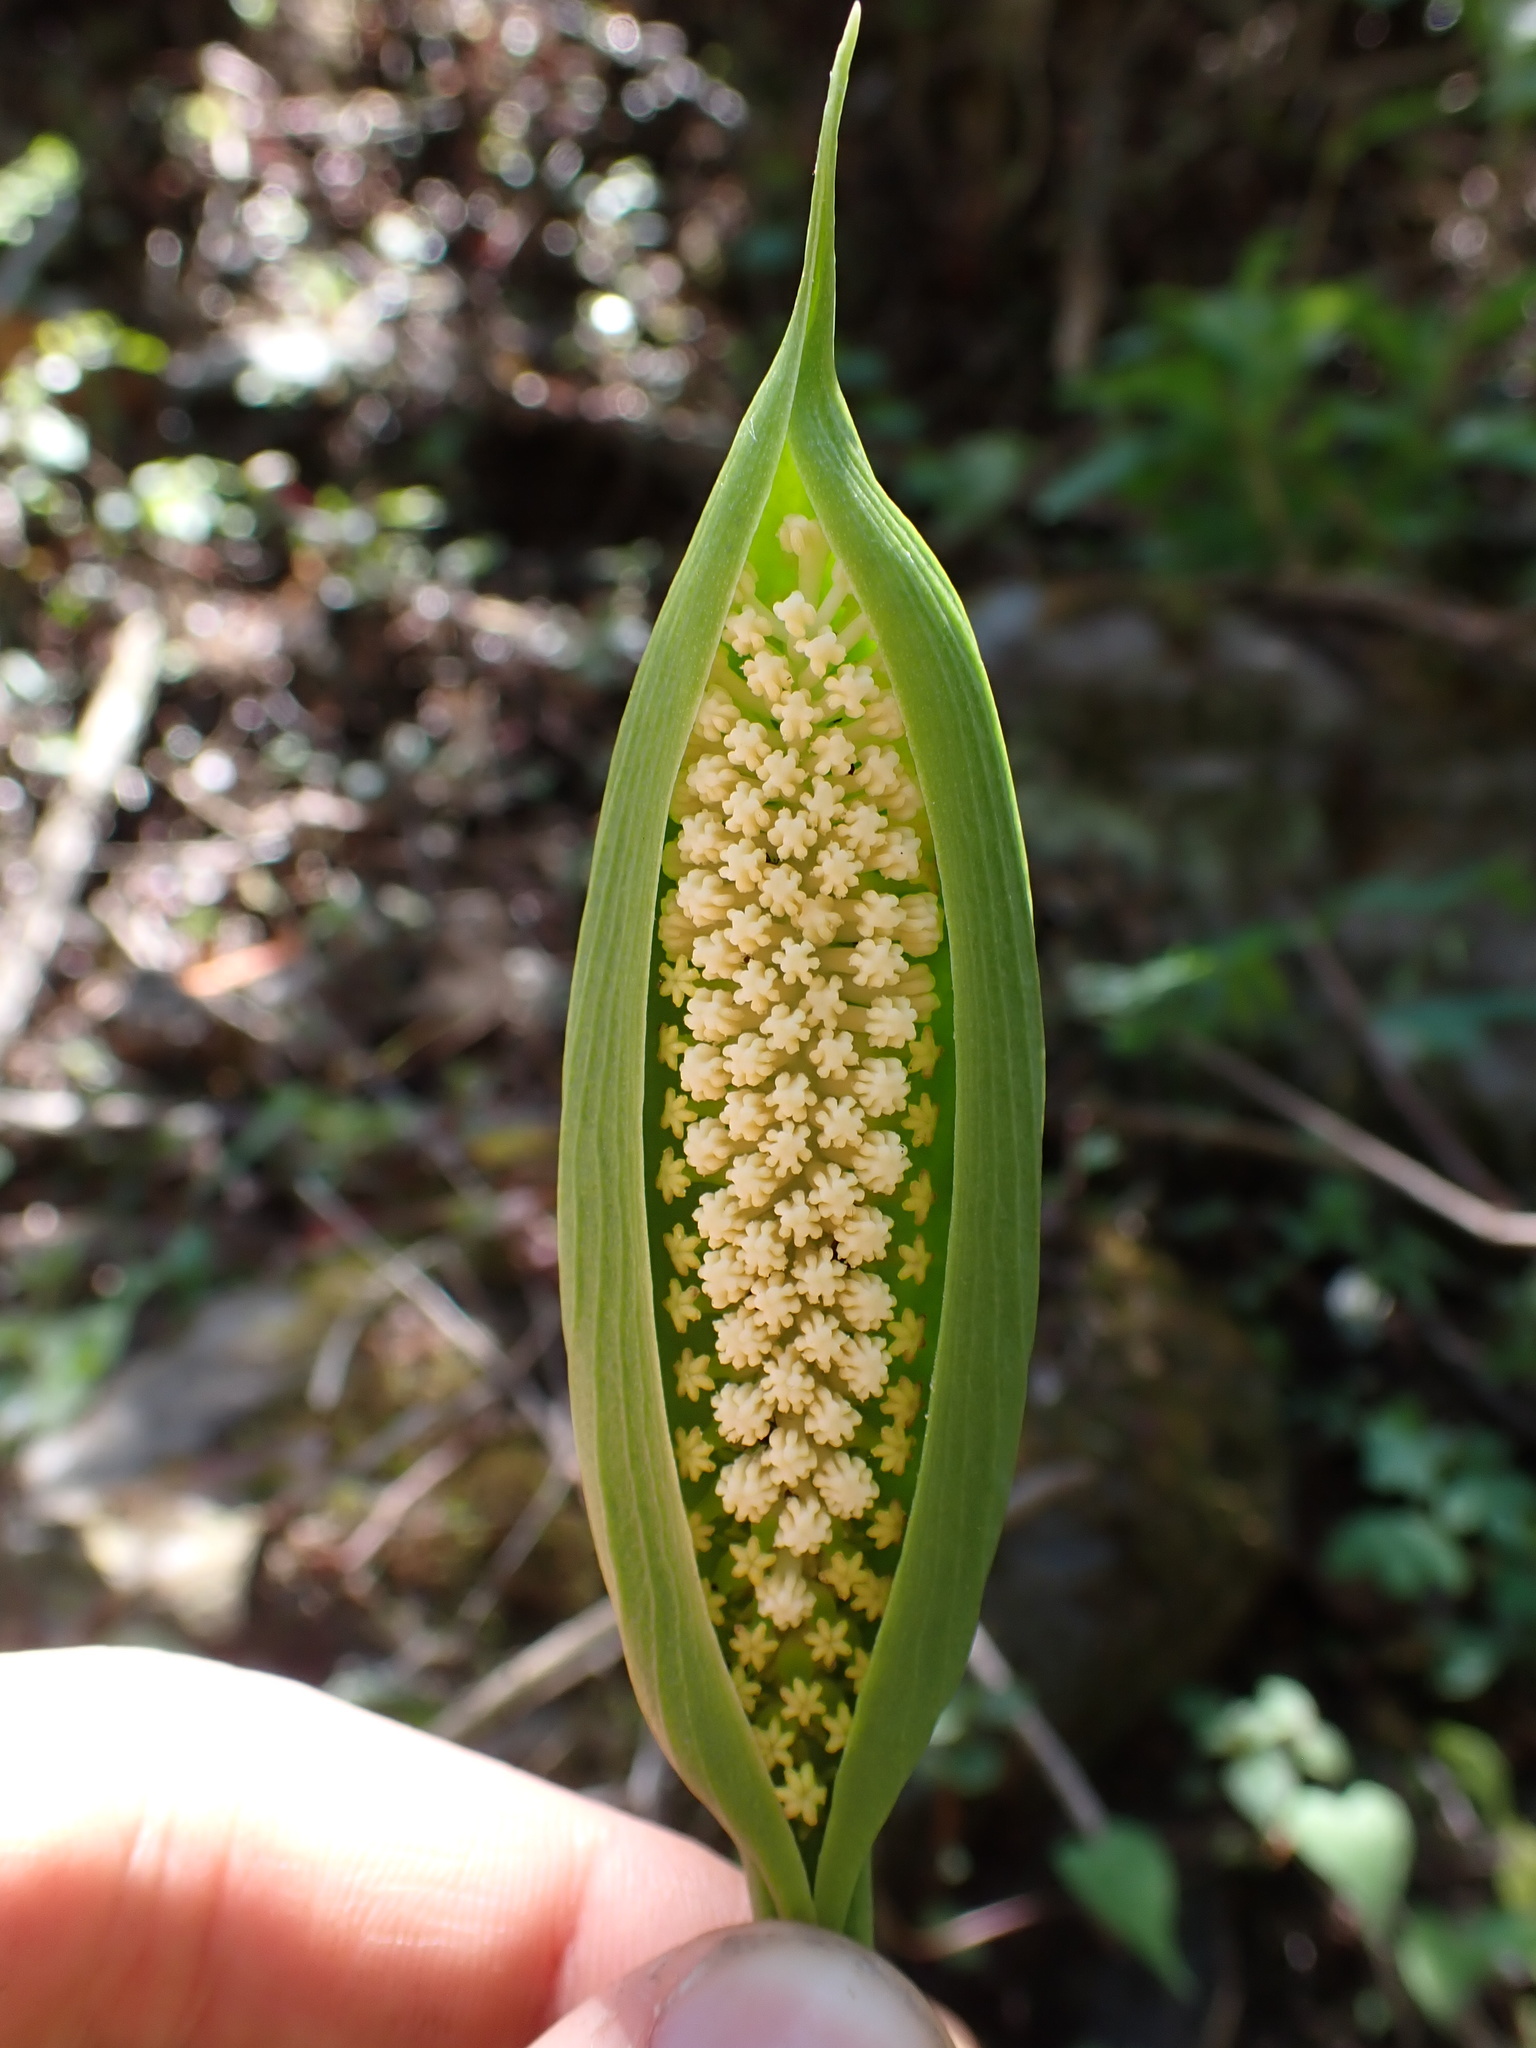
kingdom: Plantae
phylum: Tracheophyta
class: Liliopsida
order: Alismatales
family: Araceae
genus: Spathantheum
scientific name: Spathantheum orbignyanum
